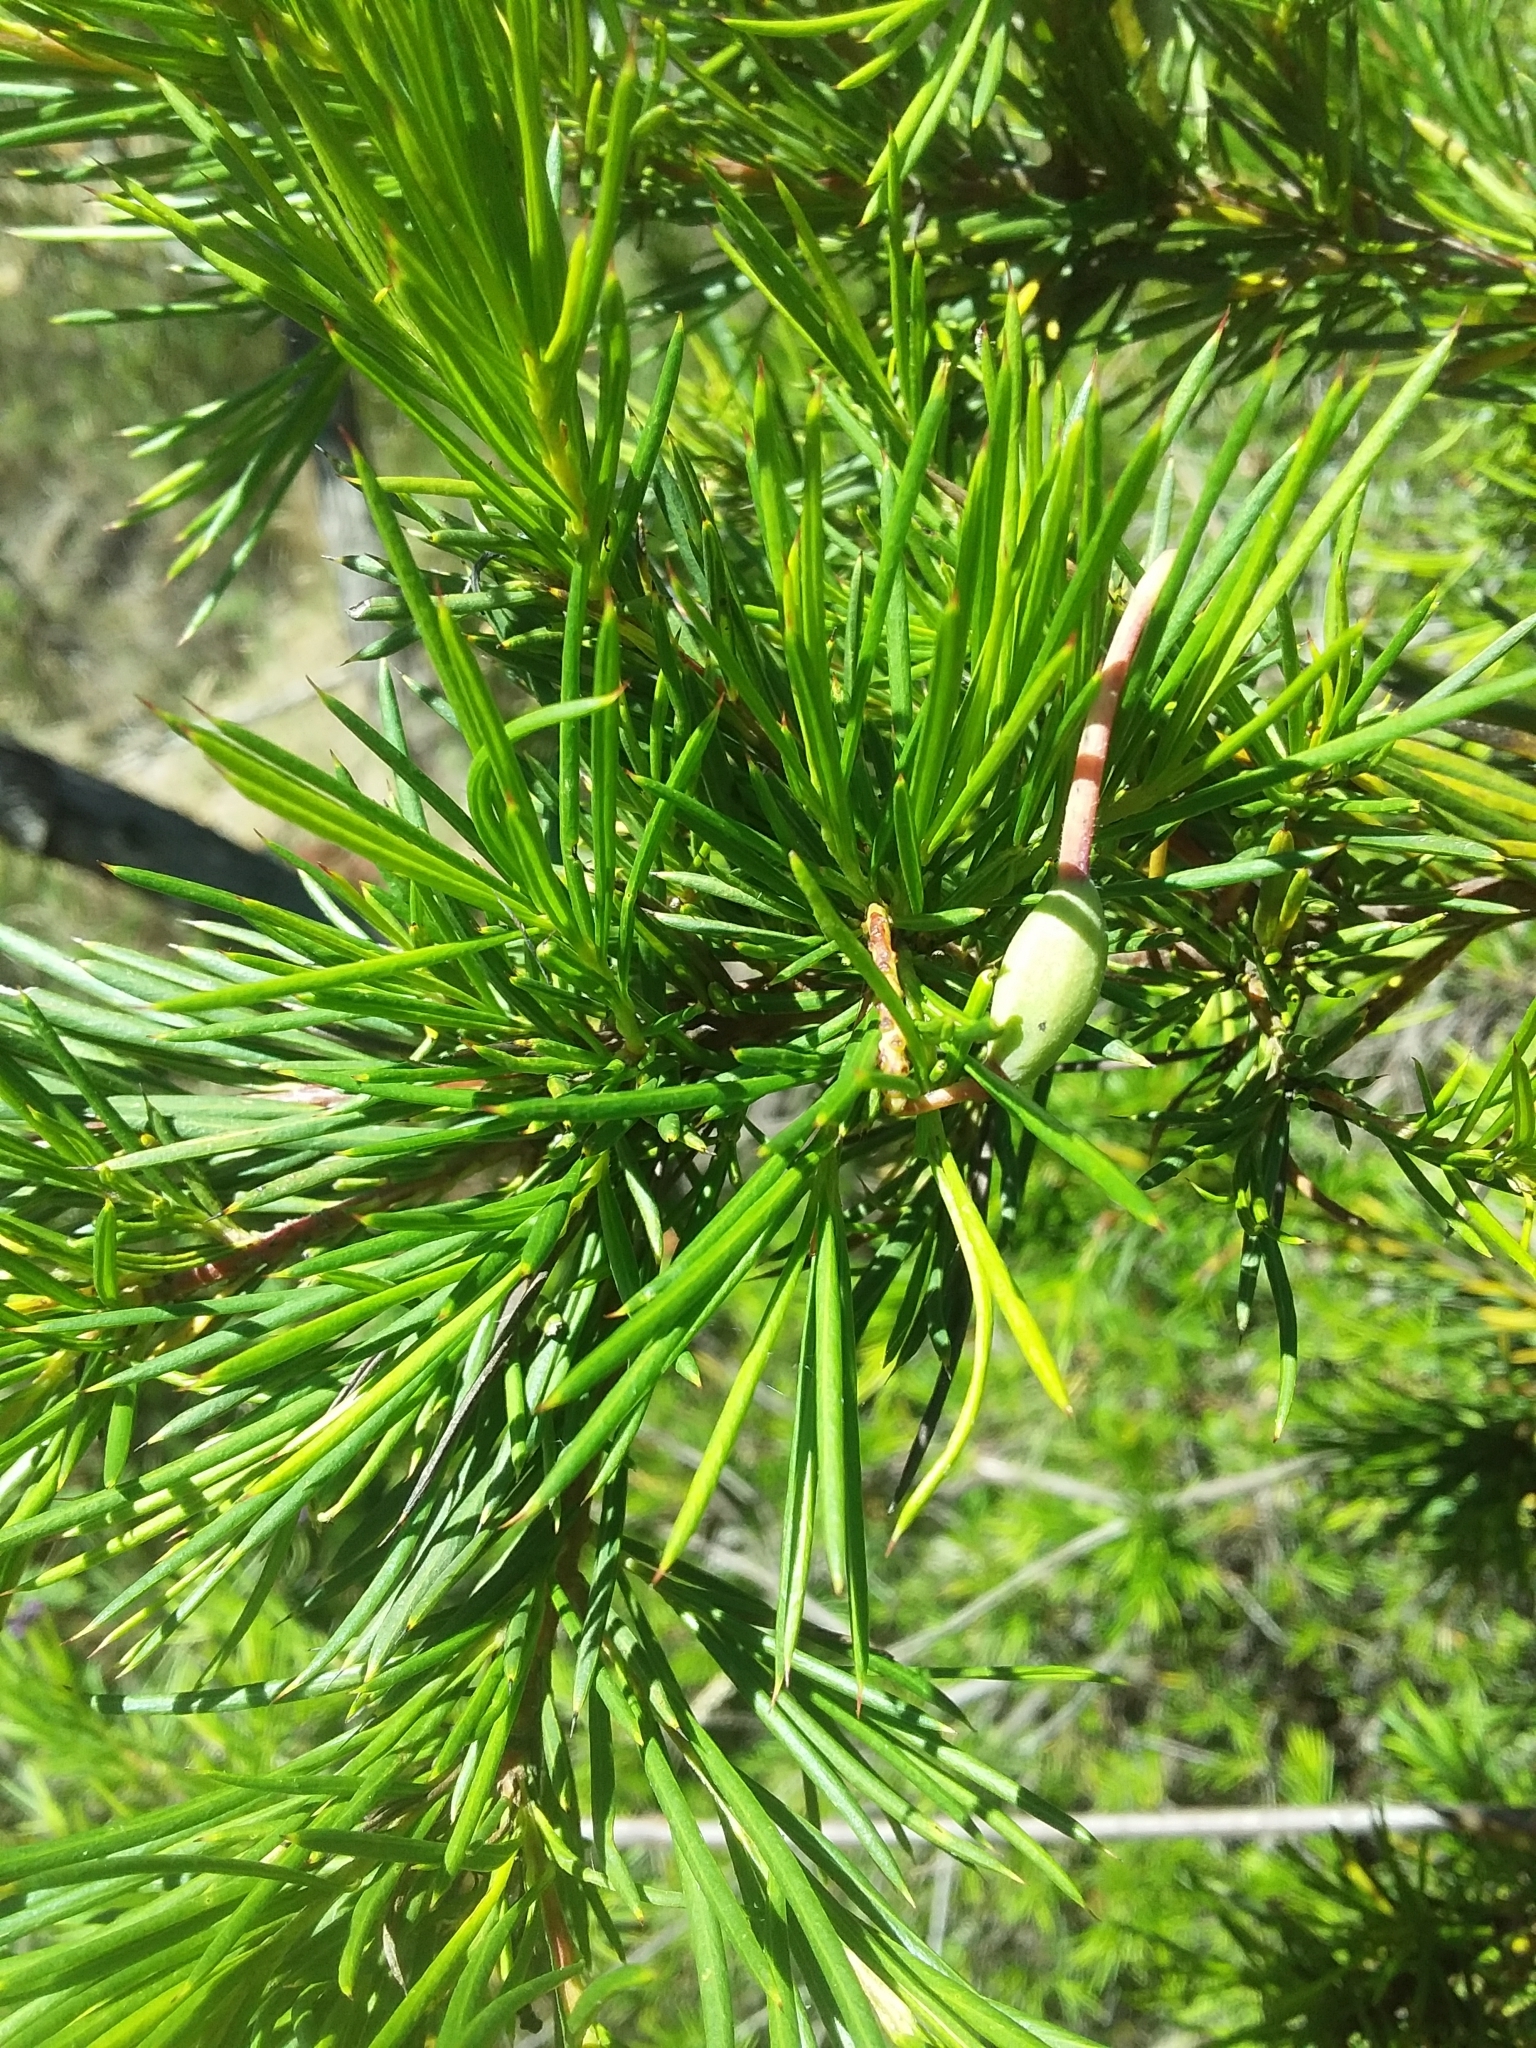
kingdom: Plantae
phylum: Tracheophyta
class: Magnoliopsida
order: Proteales
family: Proteaceae
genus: Grevillea
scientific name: Grevillea rosmarinifolia
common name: Rosemary grevillea
